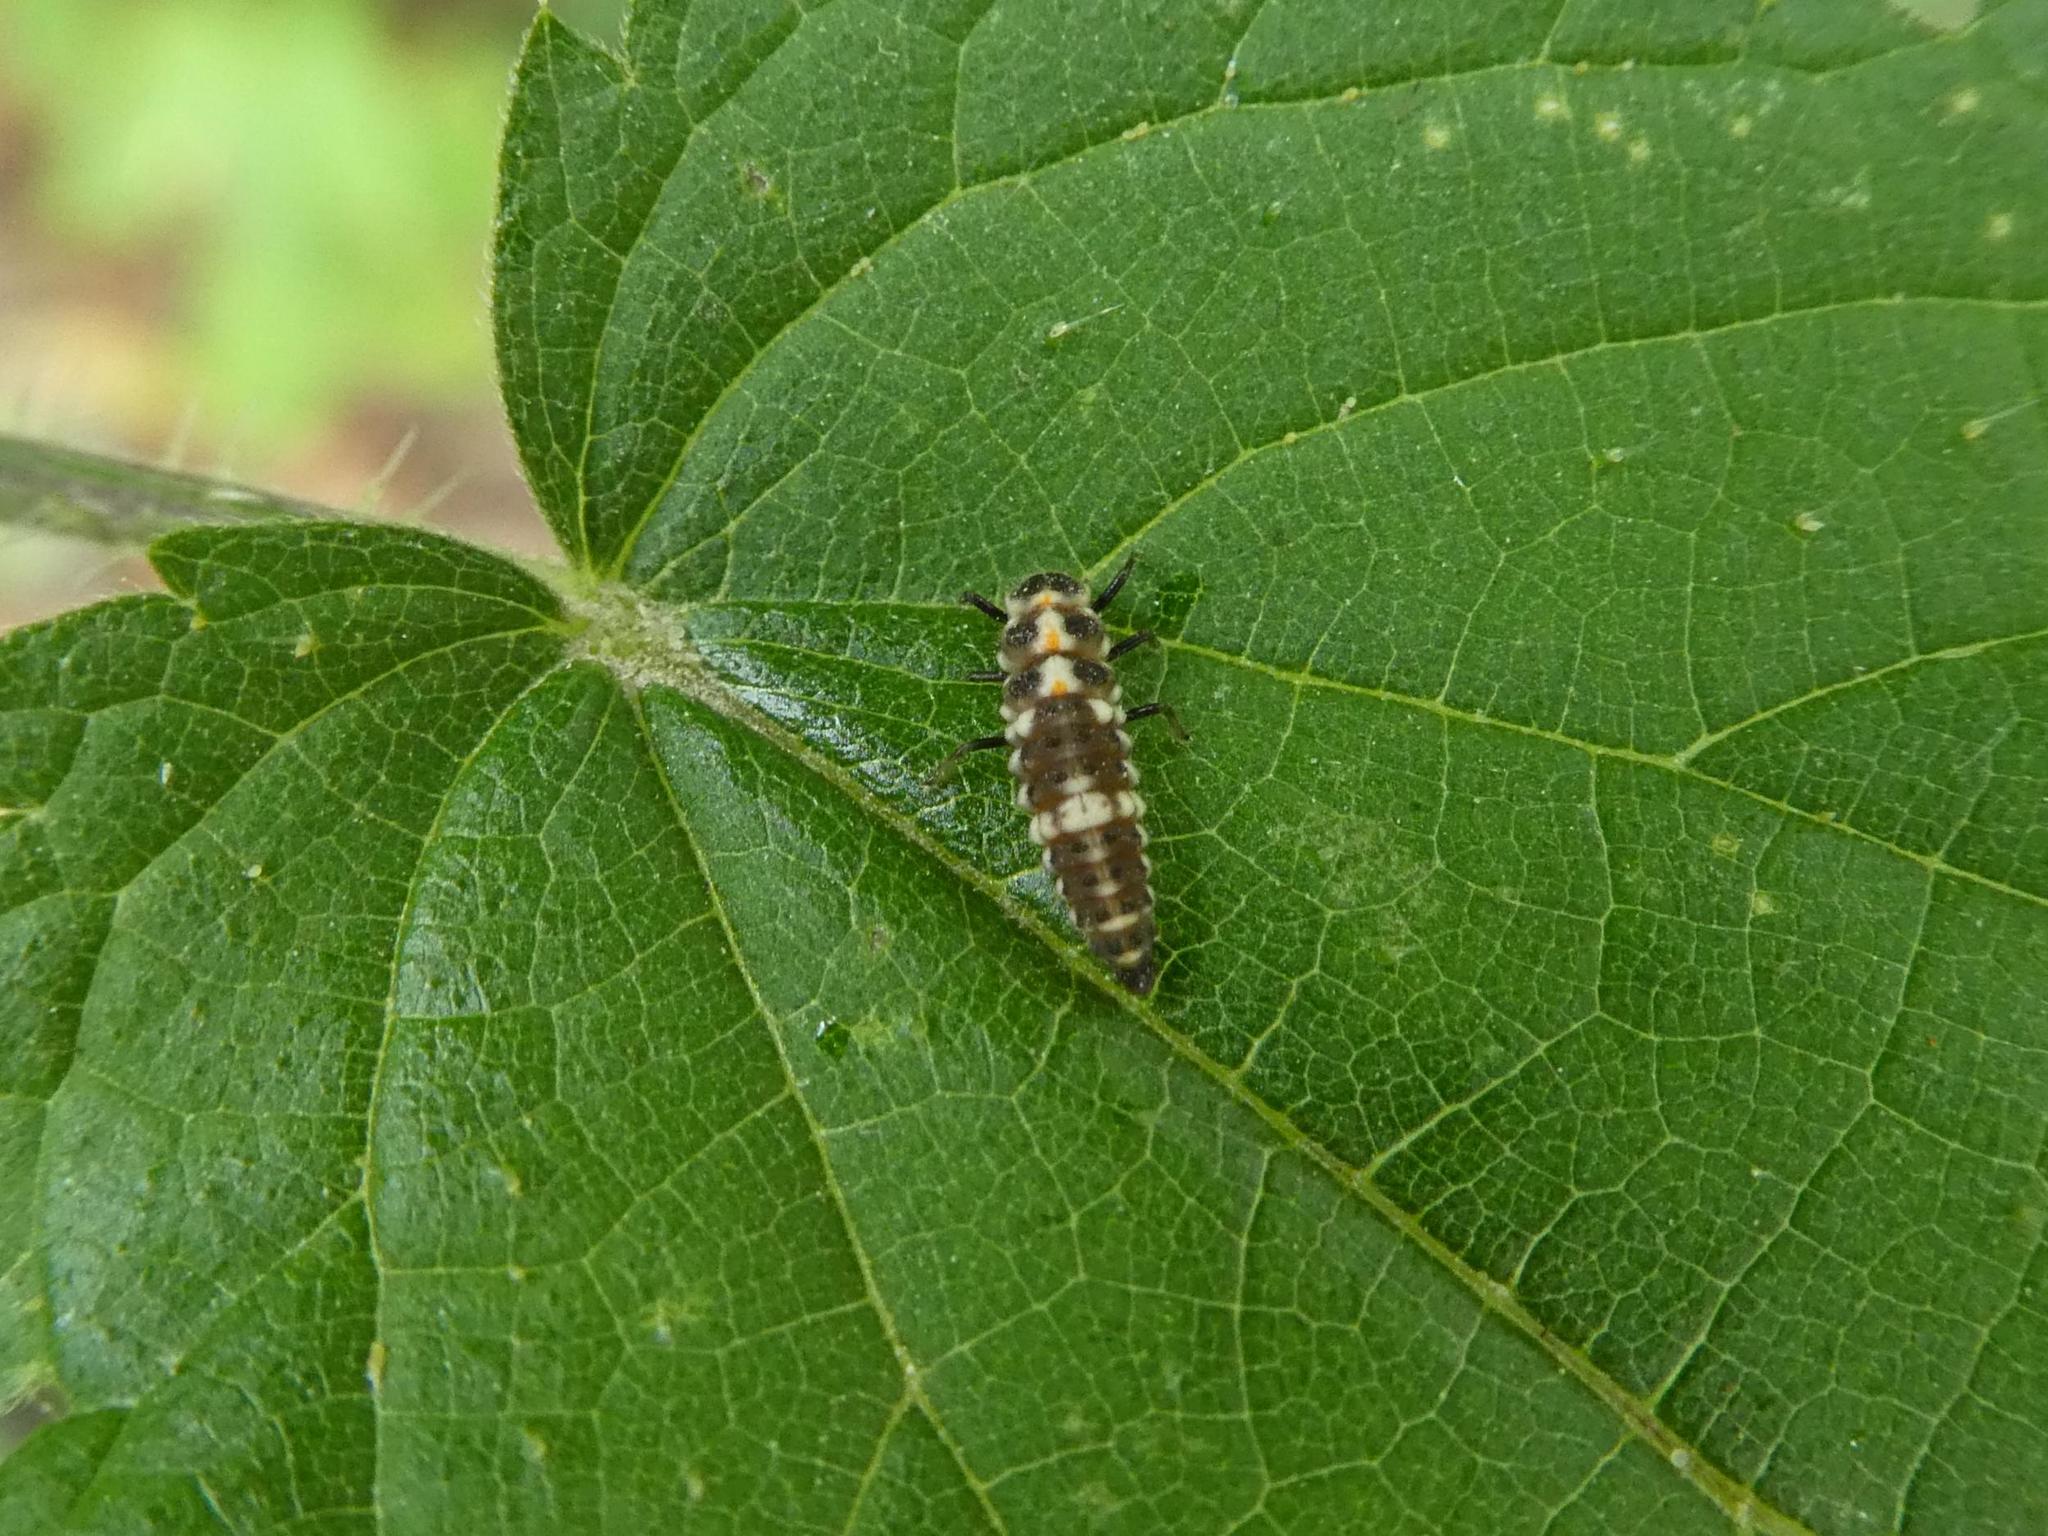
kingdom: Animalia
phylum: Arthropoda
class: Insecta
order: Coleoptera
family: Coccinellidae
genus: Propylaea
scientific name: Propylaea quatuordecimpunctata
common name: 14-spotted ladybird beetle
